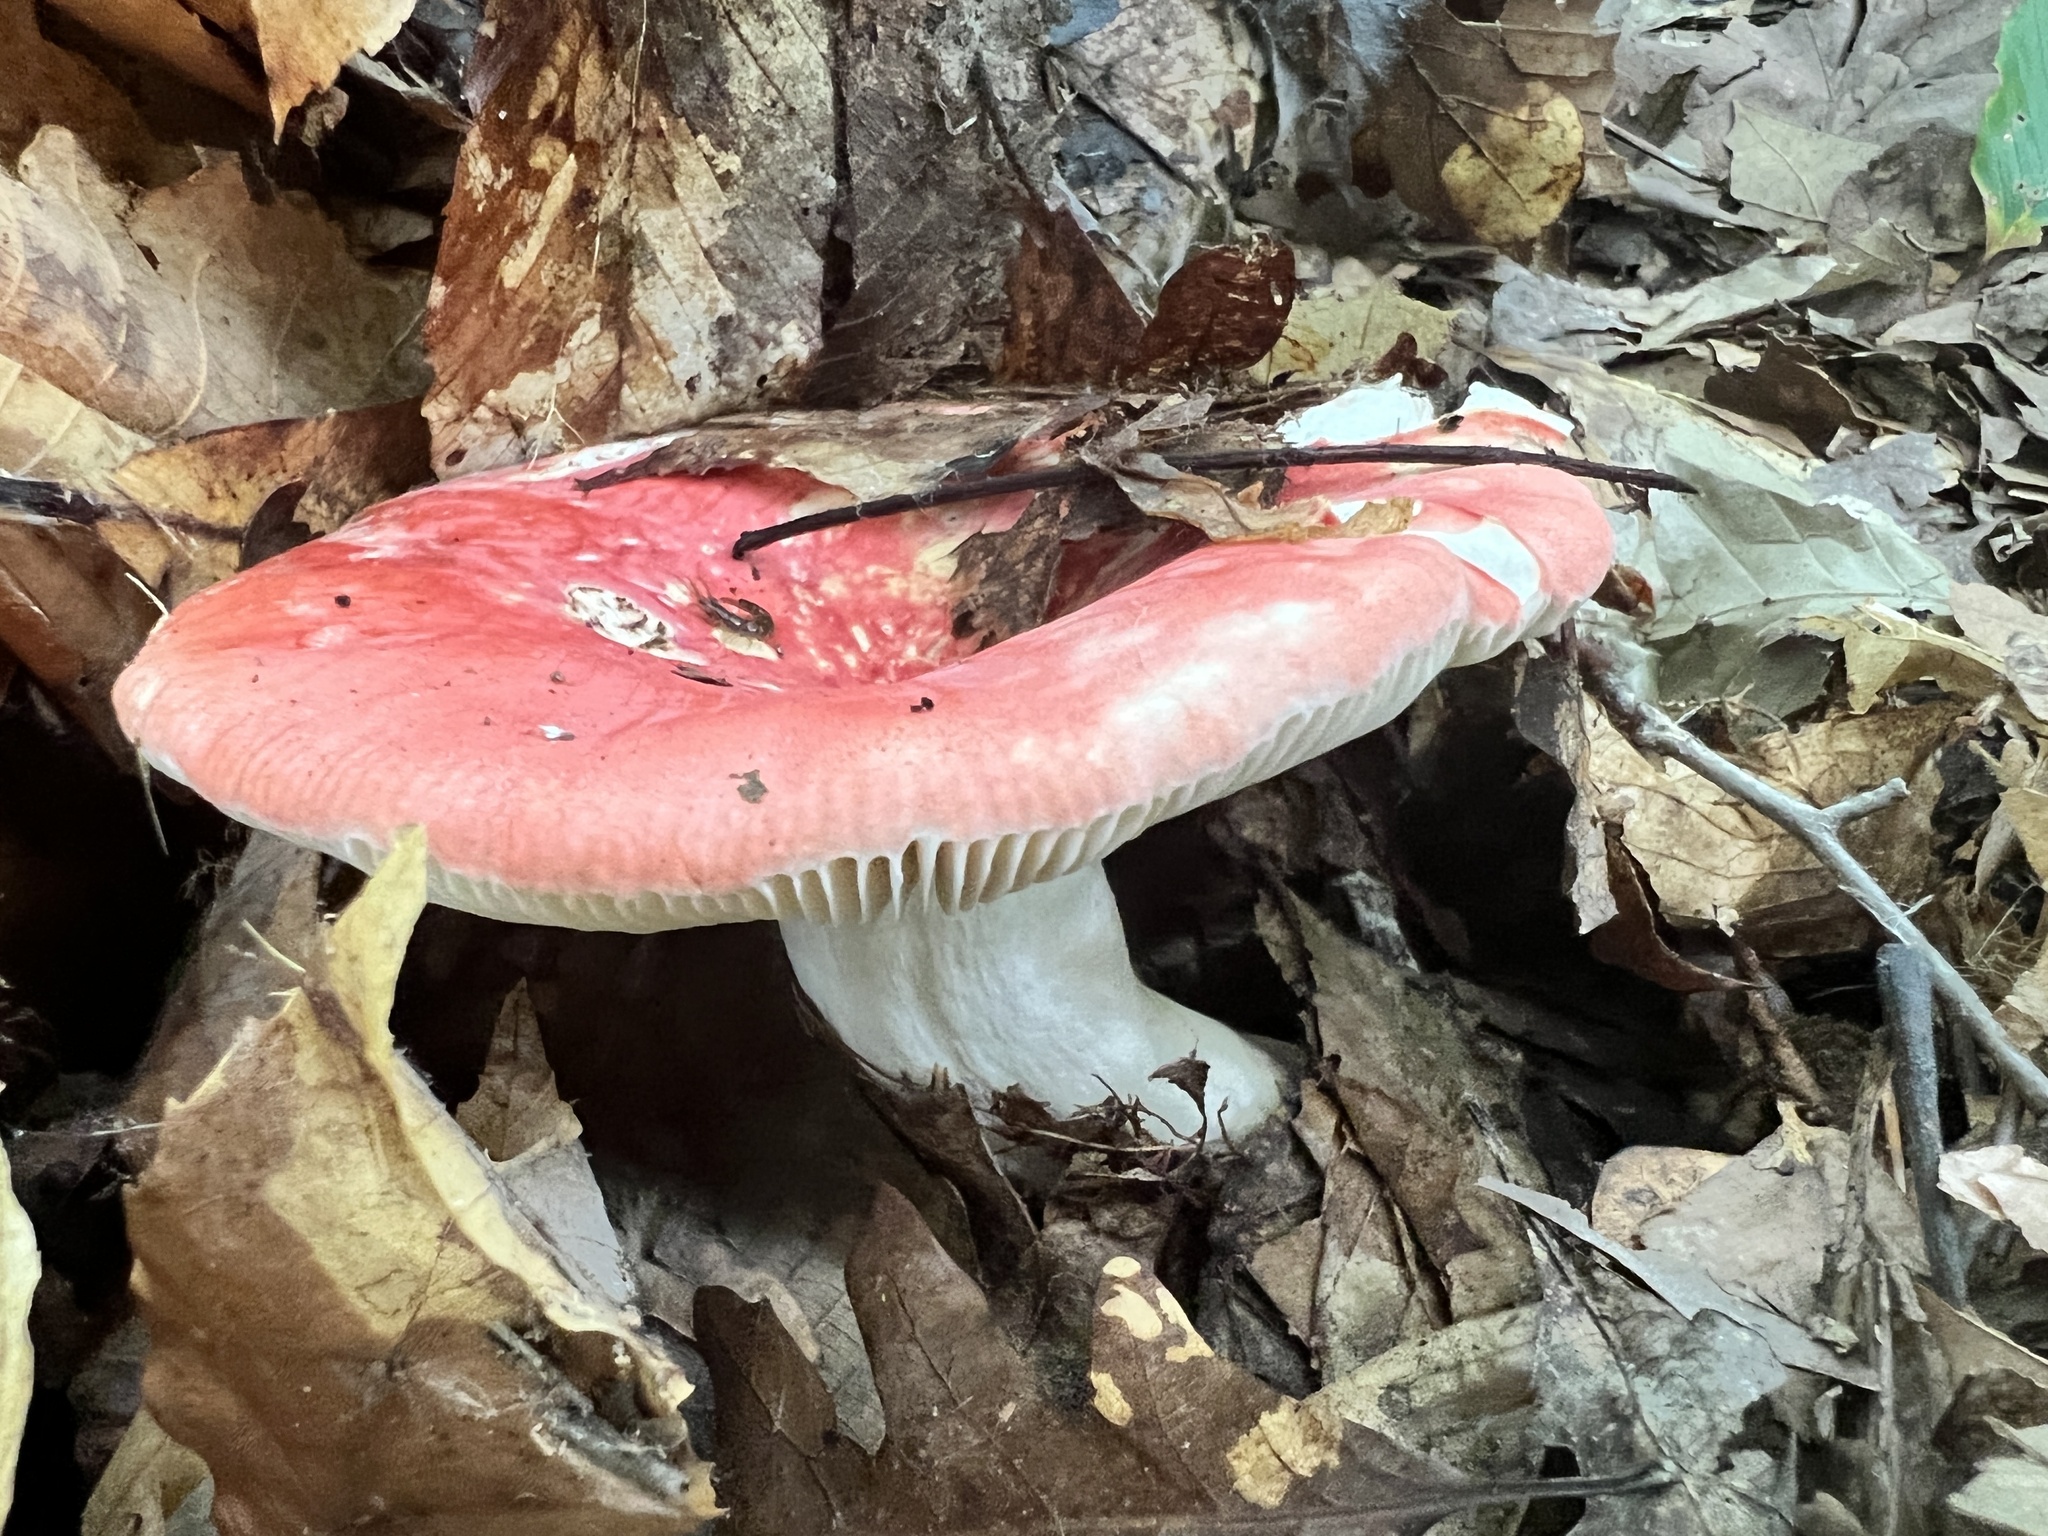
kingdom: Fungi
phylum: Basidiomycota
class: Agaricomycetes
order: Russulales
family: Russulaceae
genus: Russula
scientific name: Russula
